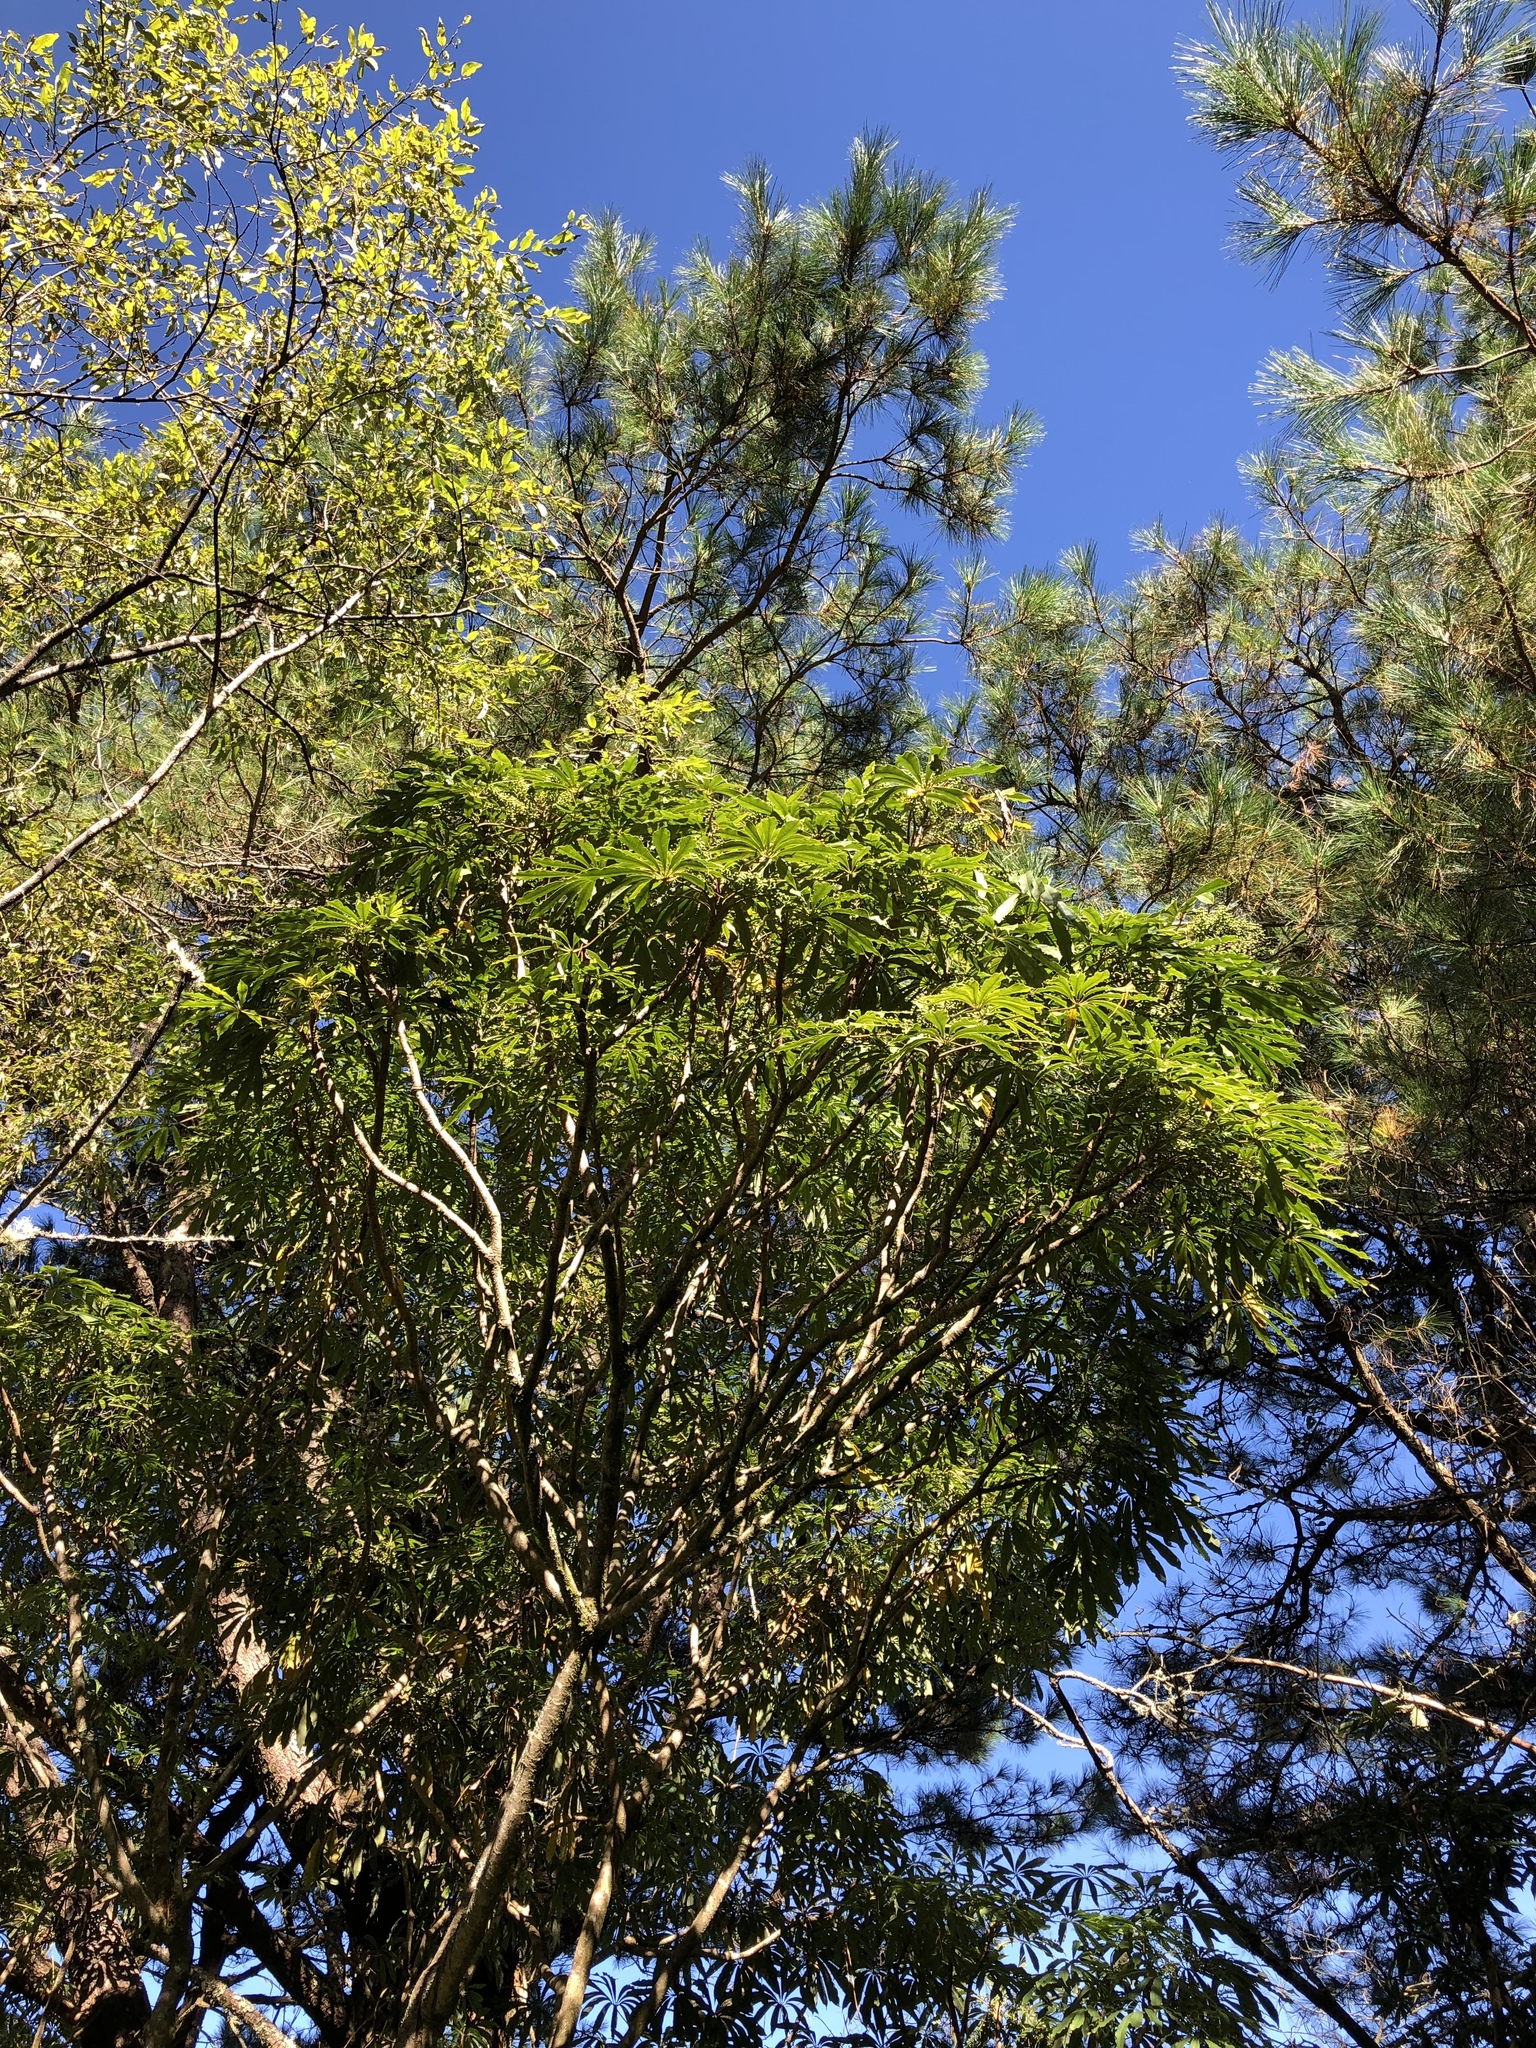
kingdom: Plantae
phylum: Tracheophyta
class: Magnoliopsida
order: Apiales
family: Araliaceae
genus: Heptapleurum
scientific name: Heptapleurum taiwanianum
